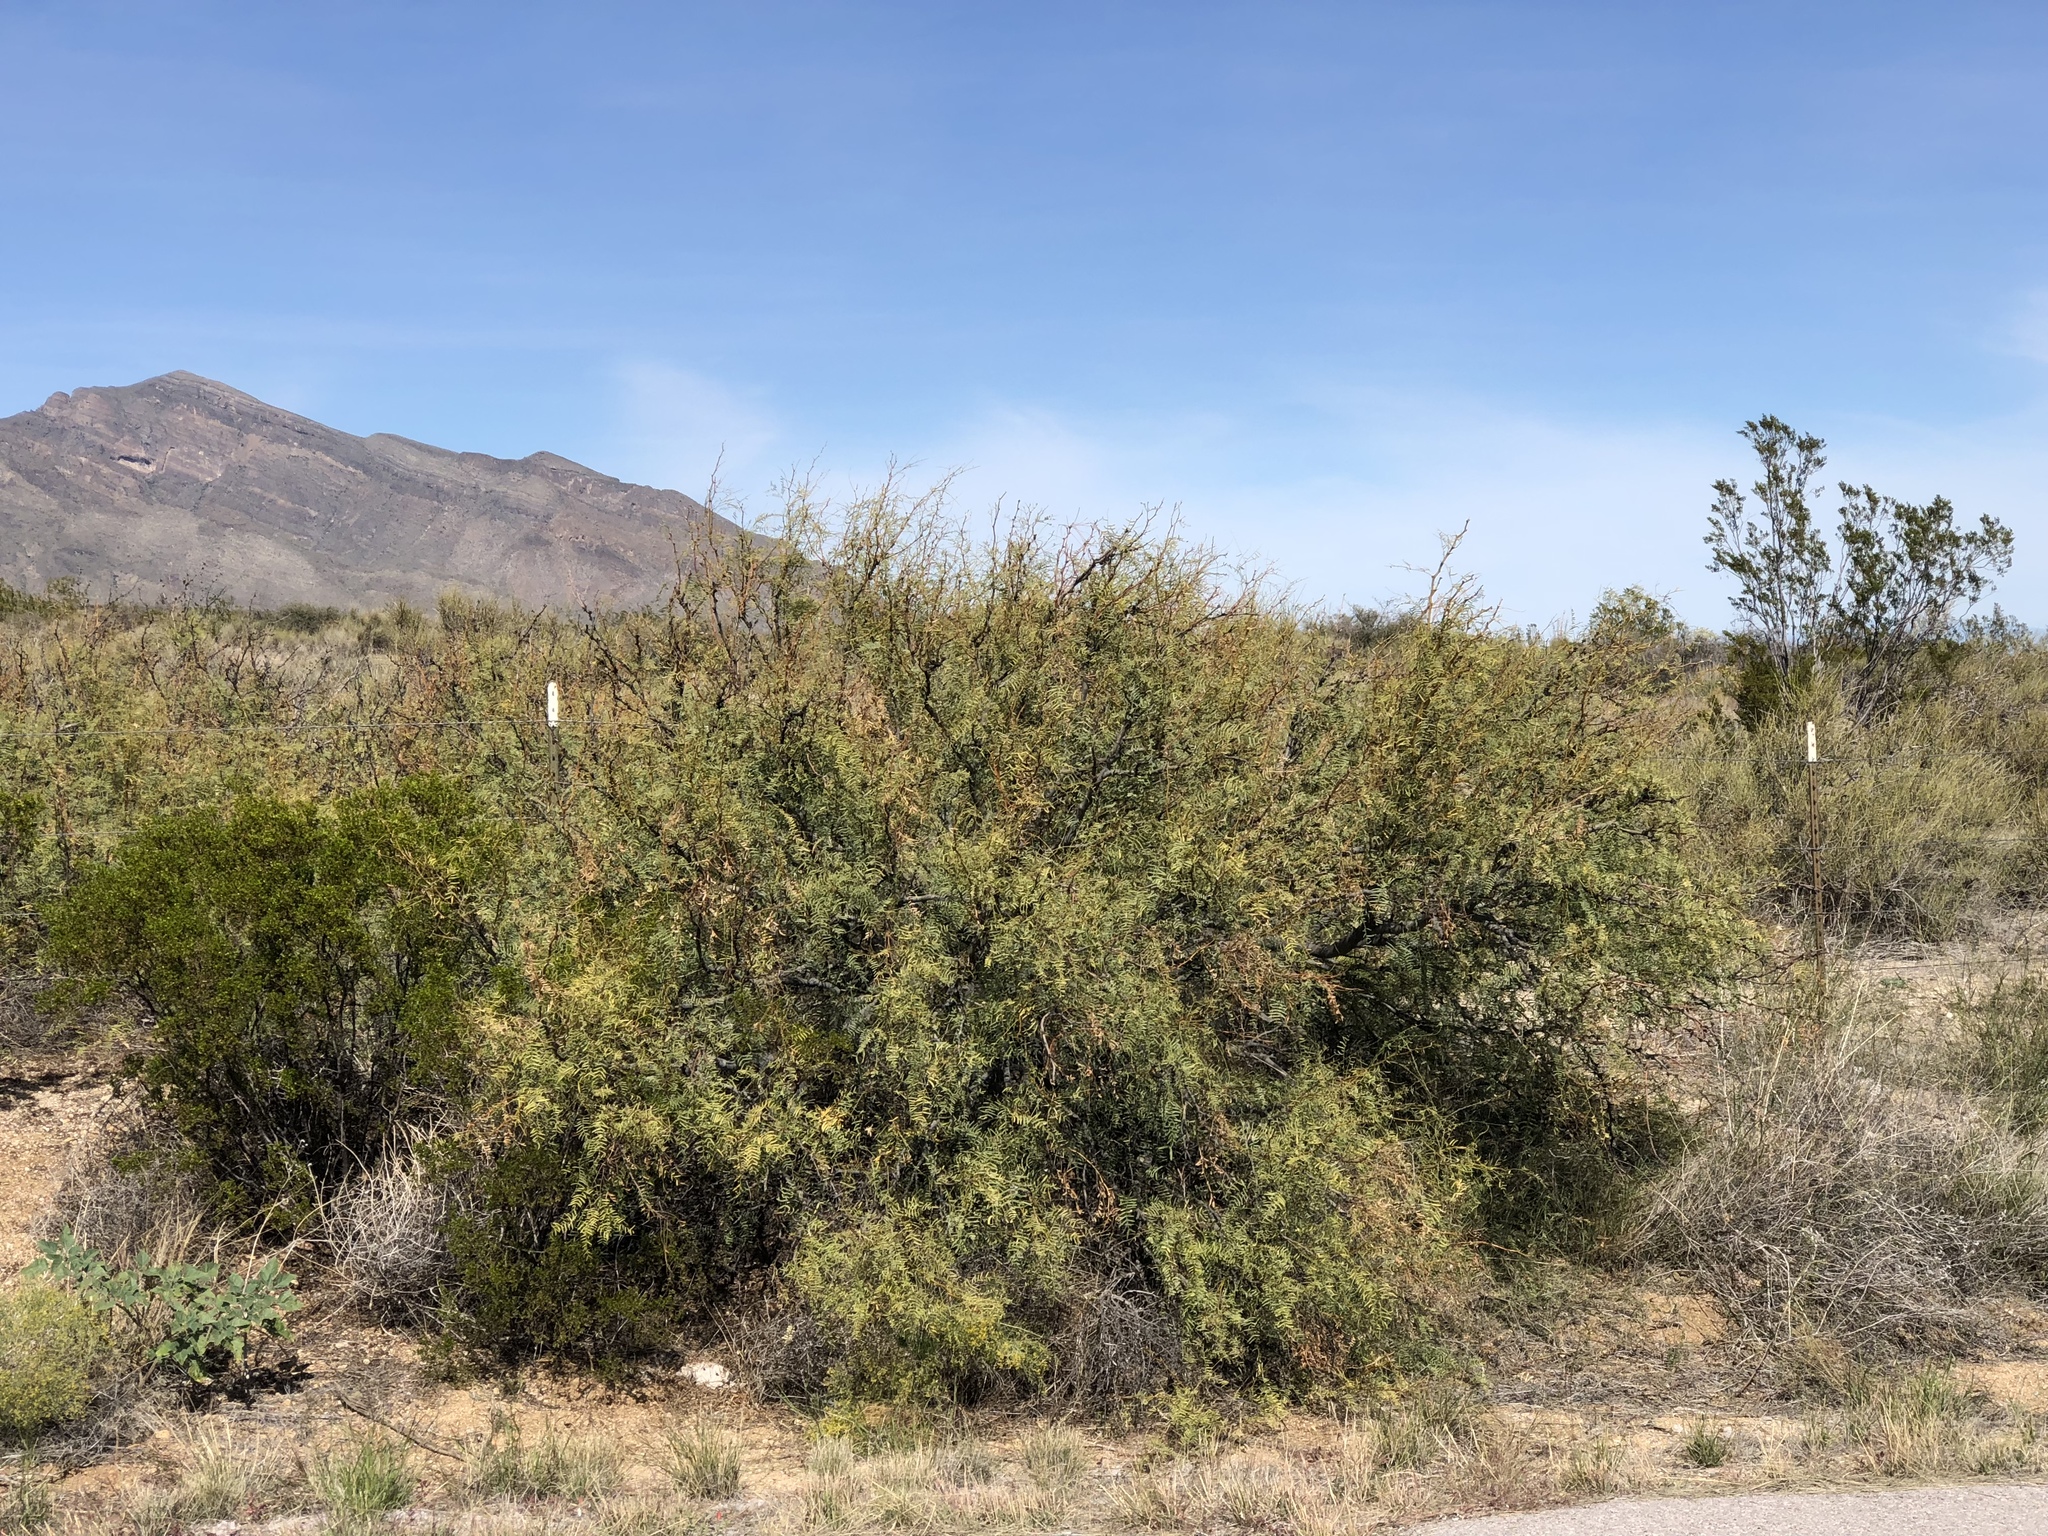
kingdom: Plantae
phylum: Tracheophyta
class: Magnoliopsida
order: Fabales
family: Fabaceae
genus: Prosopis
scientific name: Prosopis glandulosa
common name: Honey mesquite
